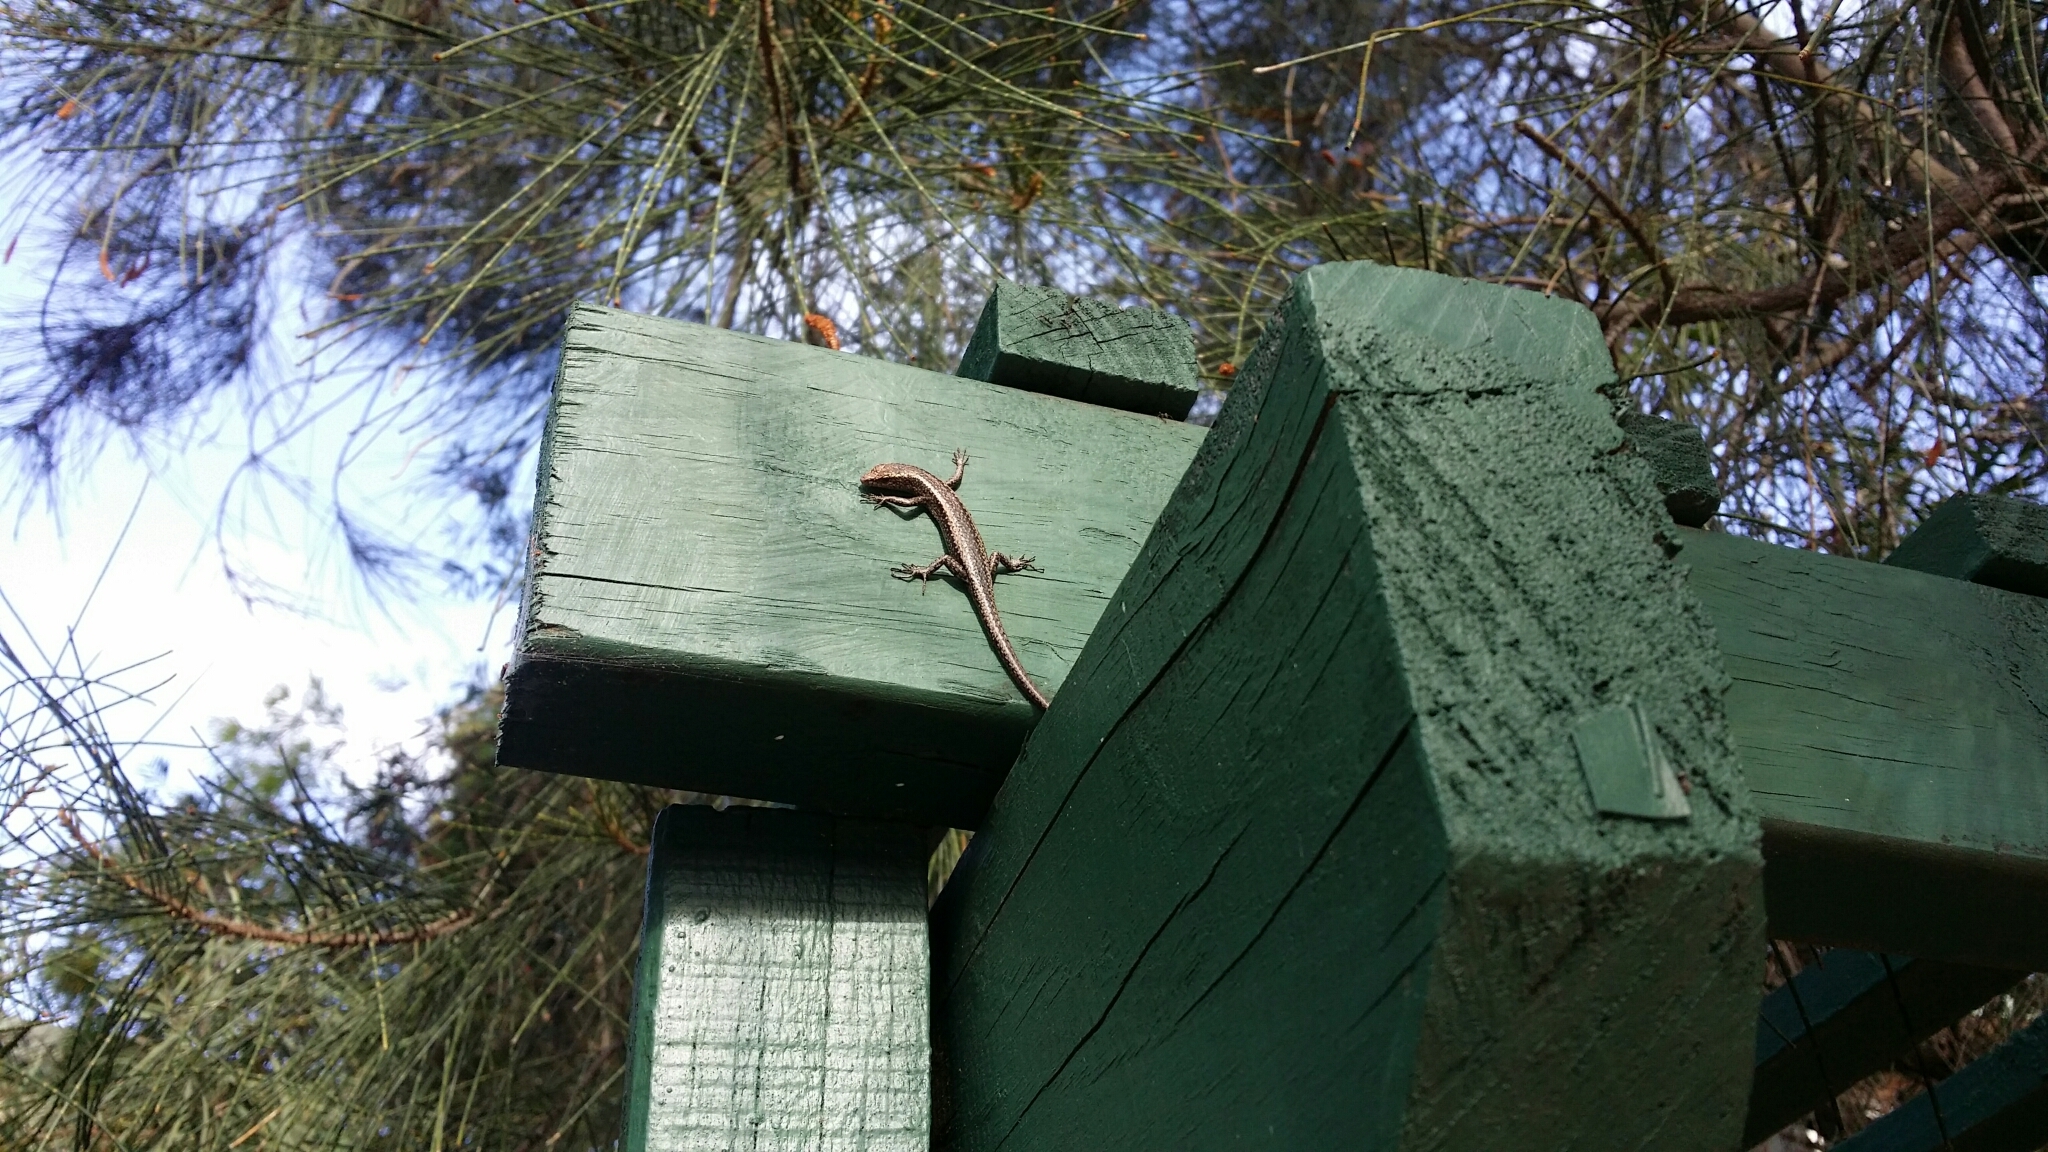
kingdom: Animalia
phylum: Chordata
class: Squamata
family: Scincidae
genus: Cryptoblepharus
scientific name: Cryptoblepharus buchananii
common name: Buchanan's snake-eyed skink
